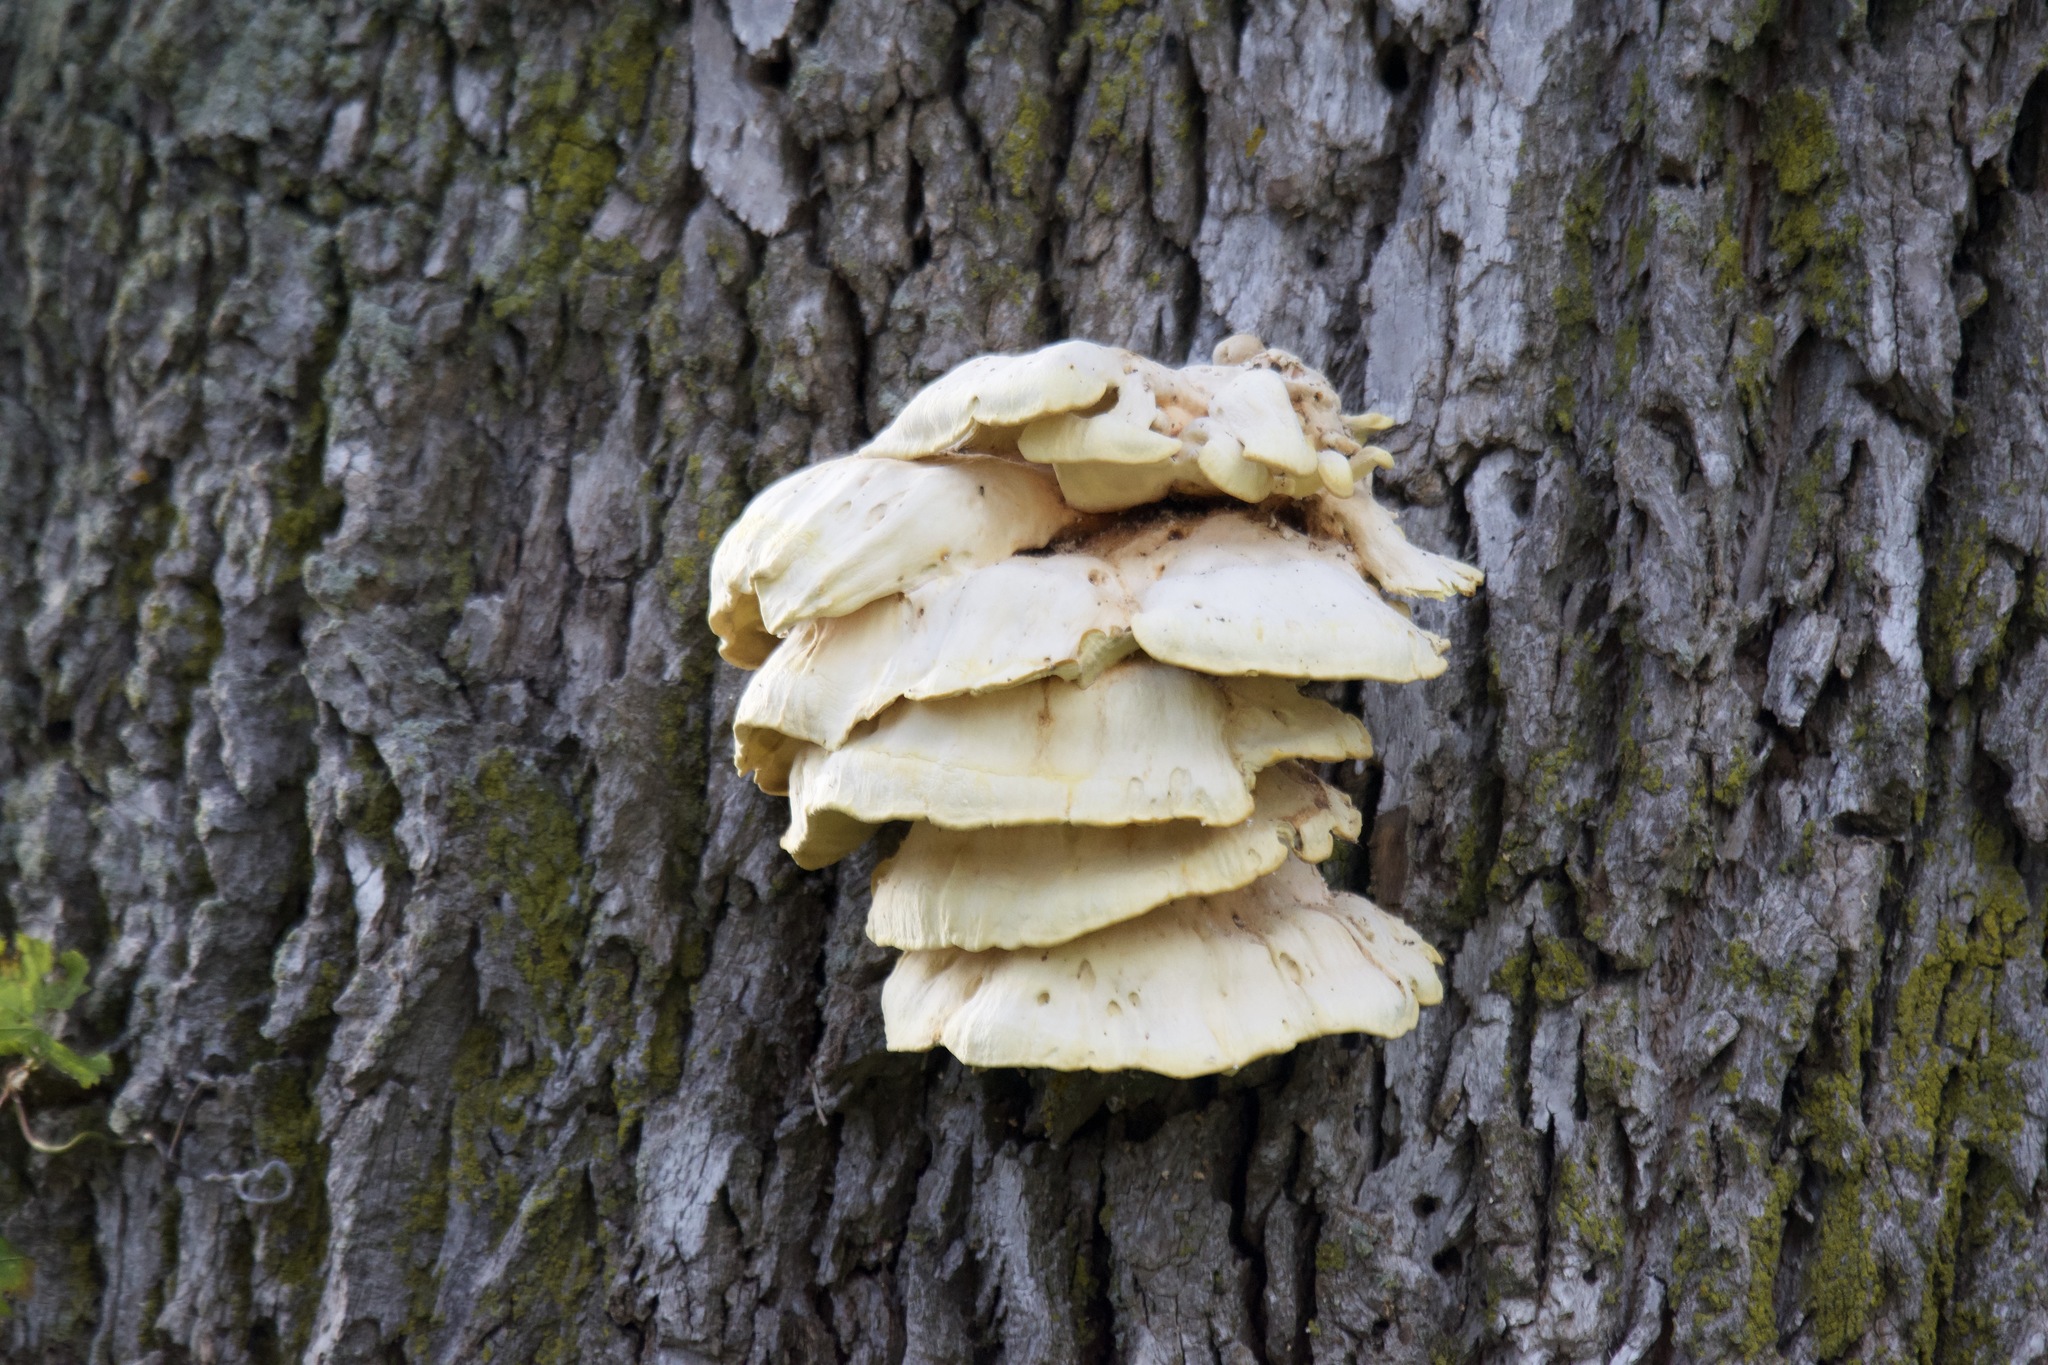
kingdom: Fungi
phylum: Basidiomycota
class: Agaricomycetes
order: Polyporales
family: Meruliaceae
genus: Climacodon
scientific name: Climacodon septentrionalis
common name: Northern tooth
